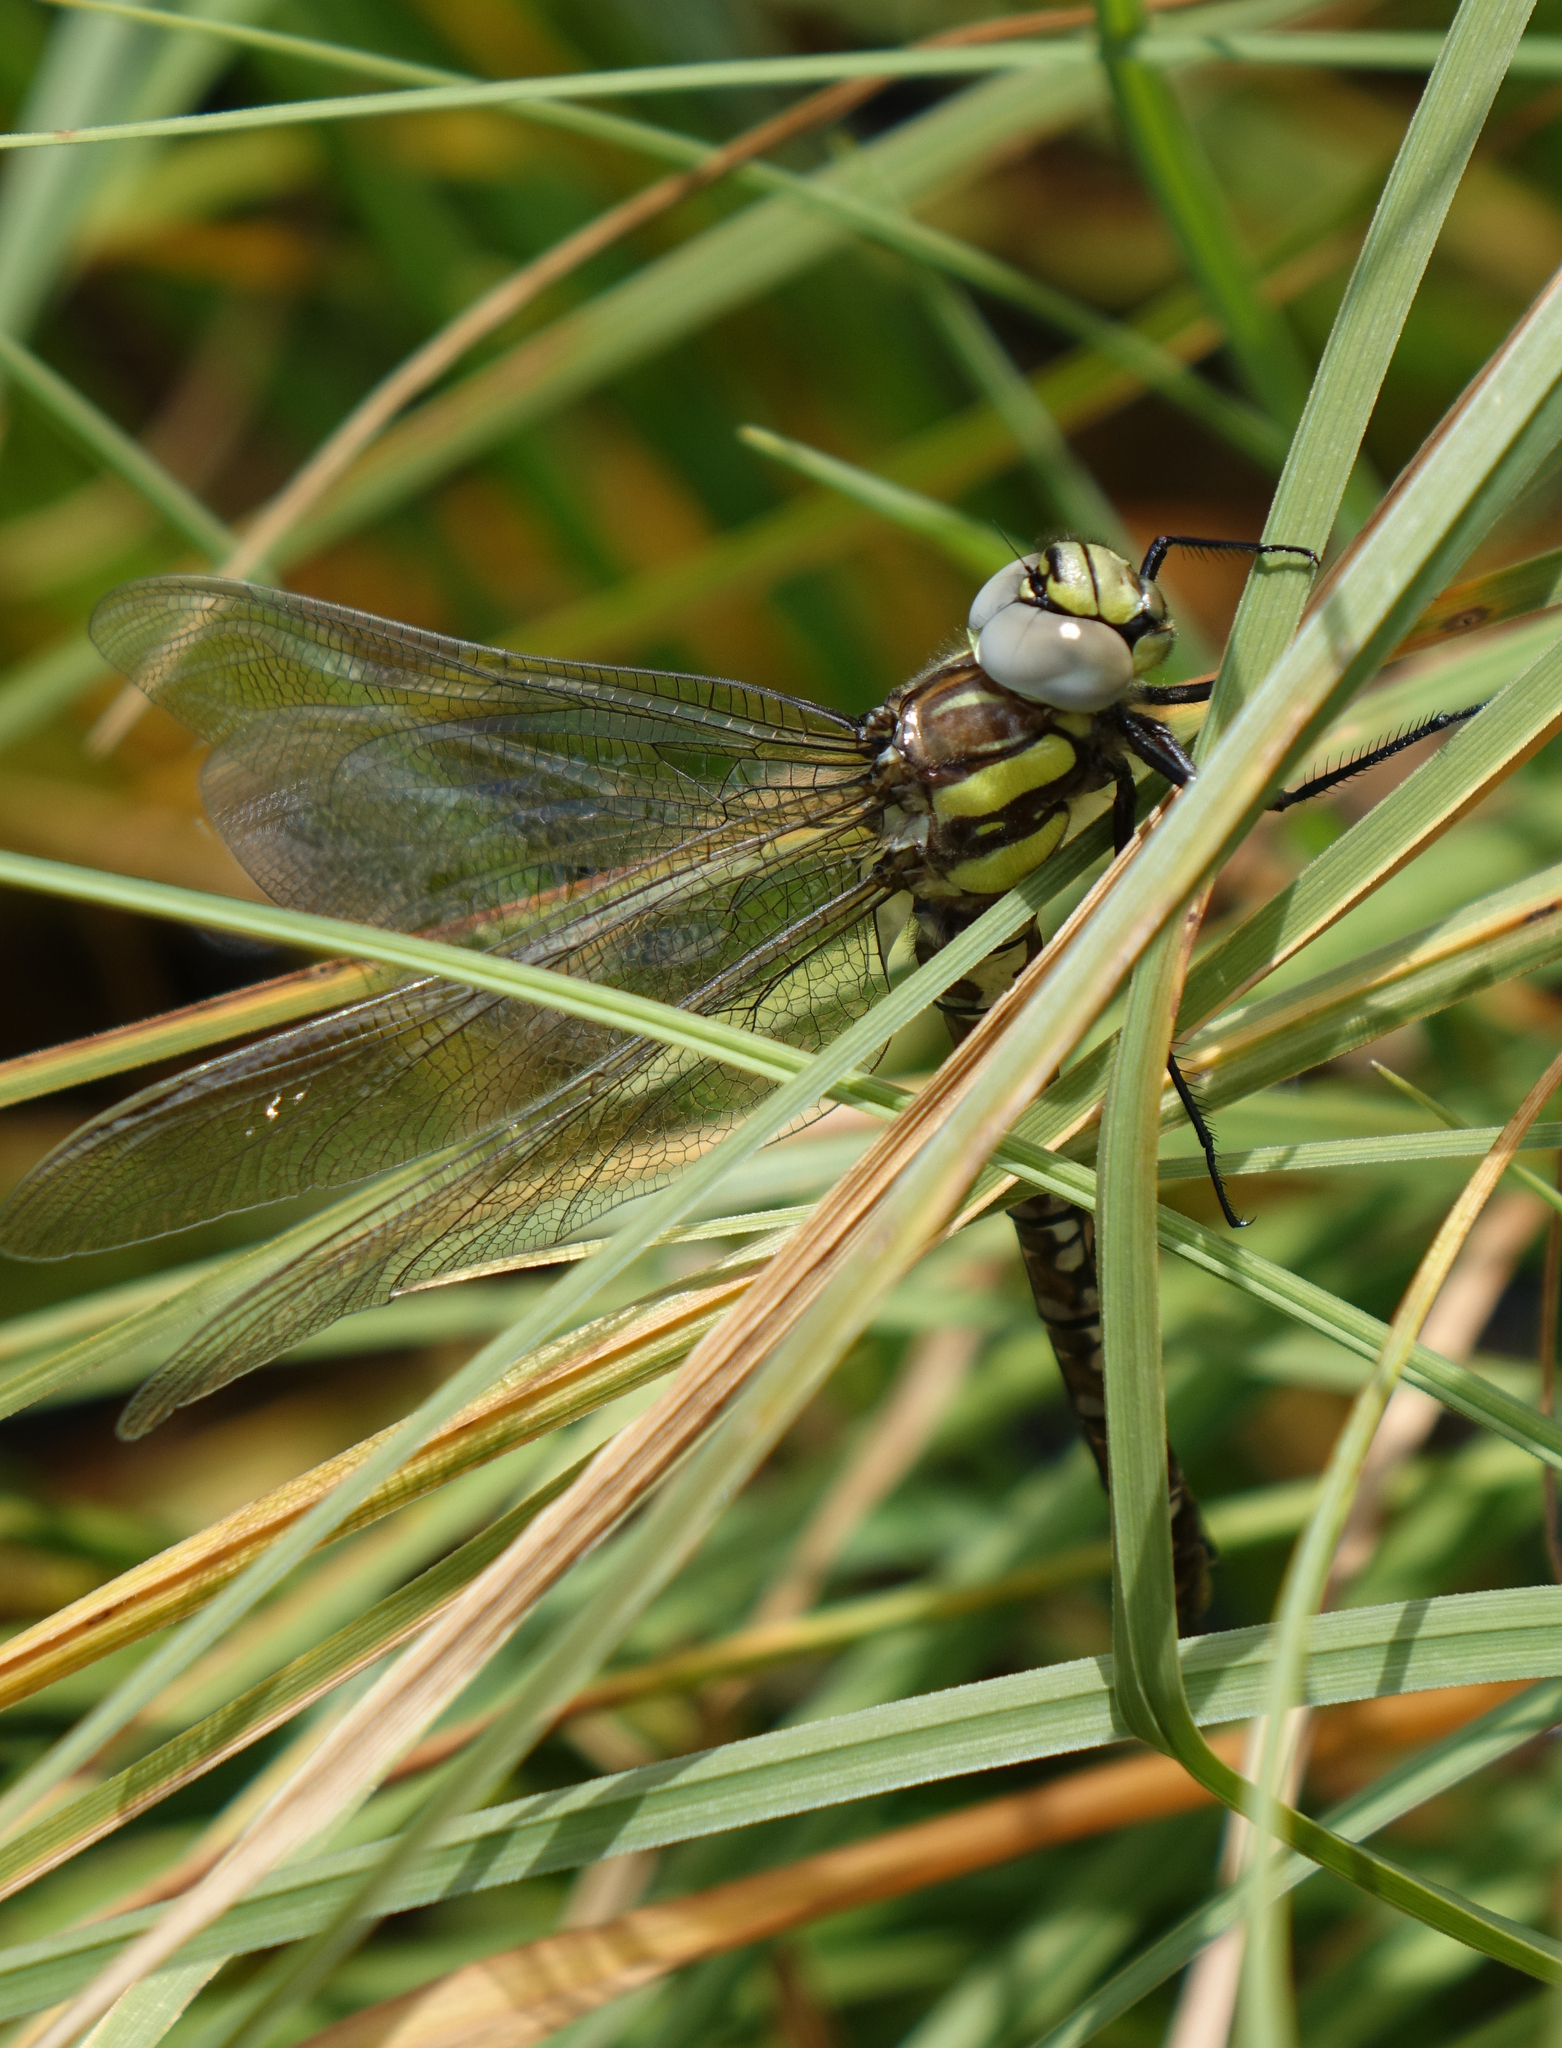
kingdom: Animalia
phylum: Arthropoda
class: Insecta
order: Odonata
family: Aeshnidae
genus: Aeshna
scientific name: Aeshna juncea
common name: Moorland hawker
